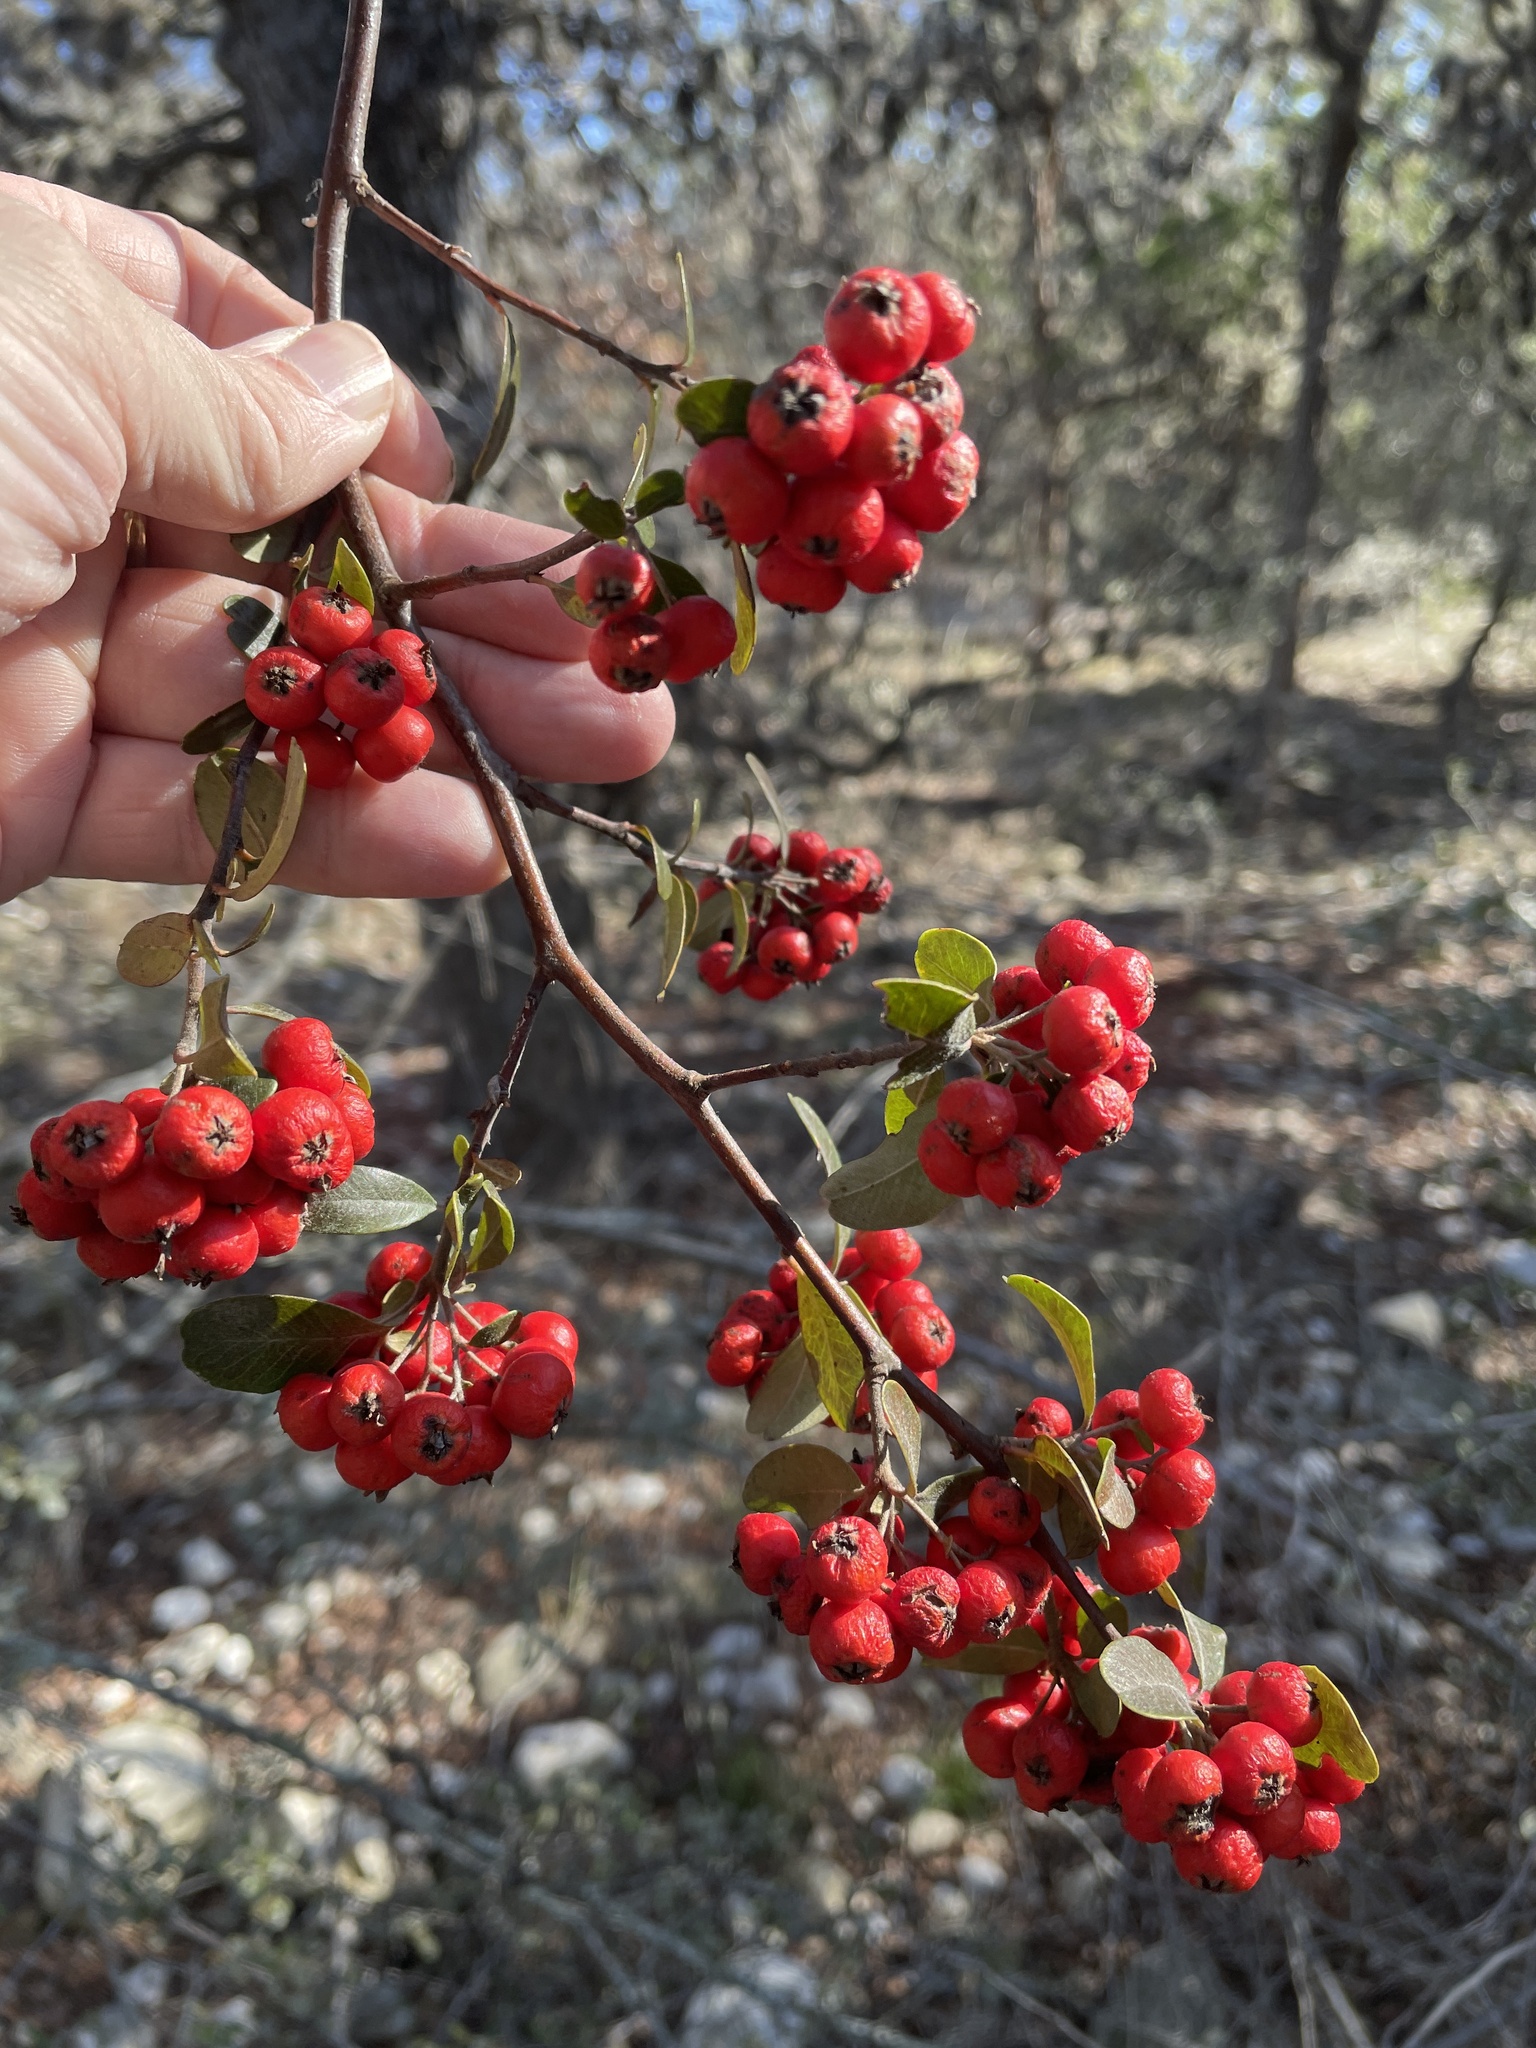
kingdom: Plantae
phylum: Tracheophyta
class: Magnoliopsida
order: Rosales
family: Rosaceae
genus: Pyracantha
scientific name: Pyracantha coccinea
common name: Firethorn
